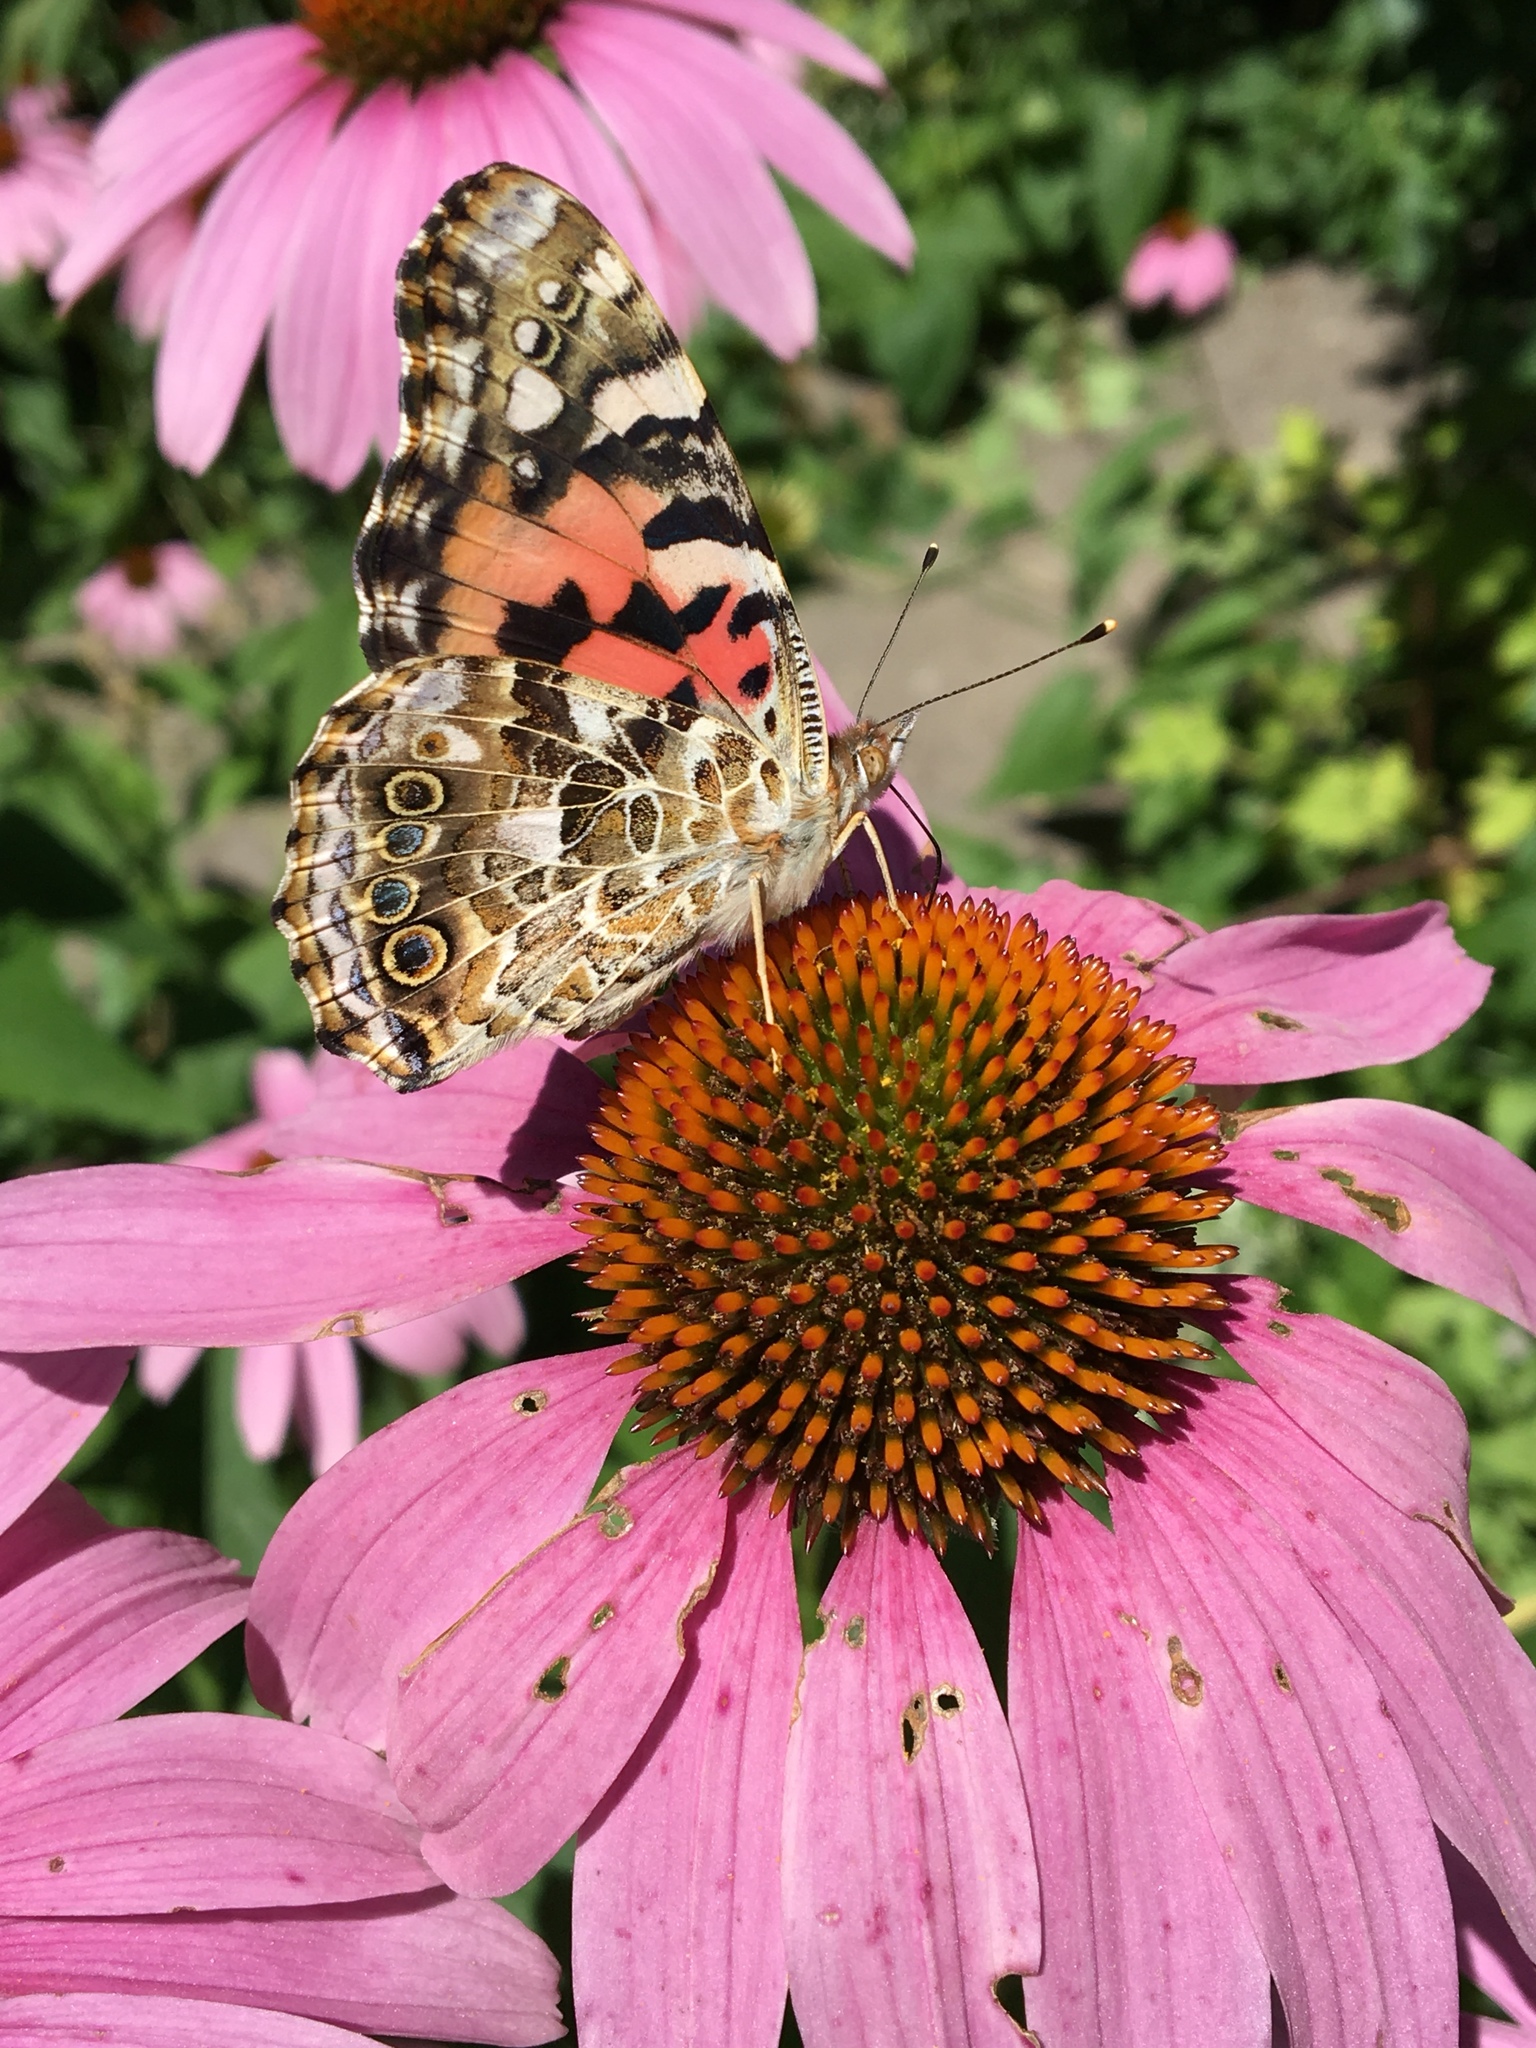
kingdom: Animalia
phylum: Arthropoda
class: Insecta
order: Lepidoptera
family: Nymphalidae
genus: Vanessa
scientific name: Vanessa cardui
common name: Painted lady
